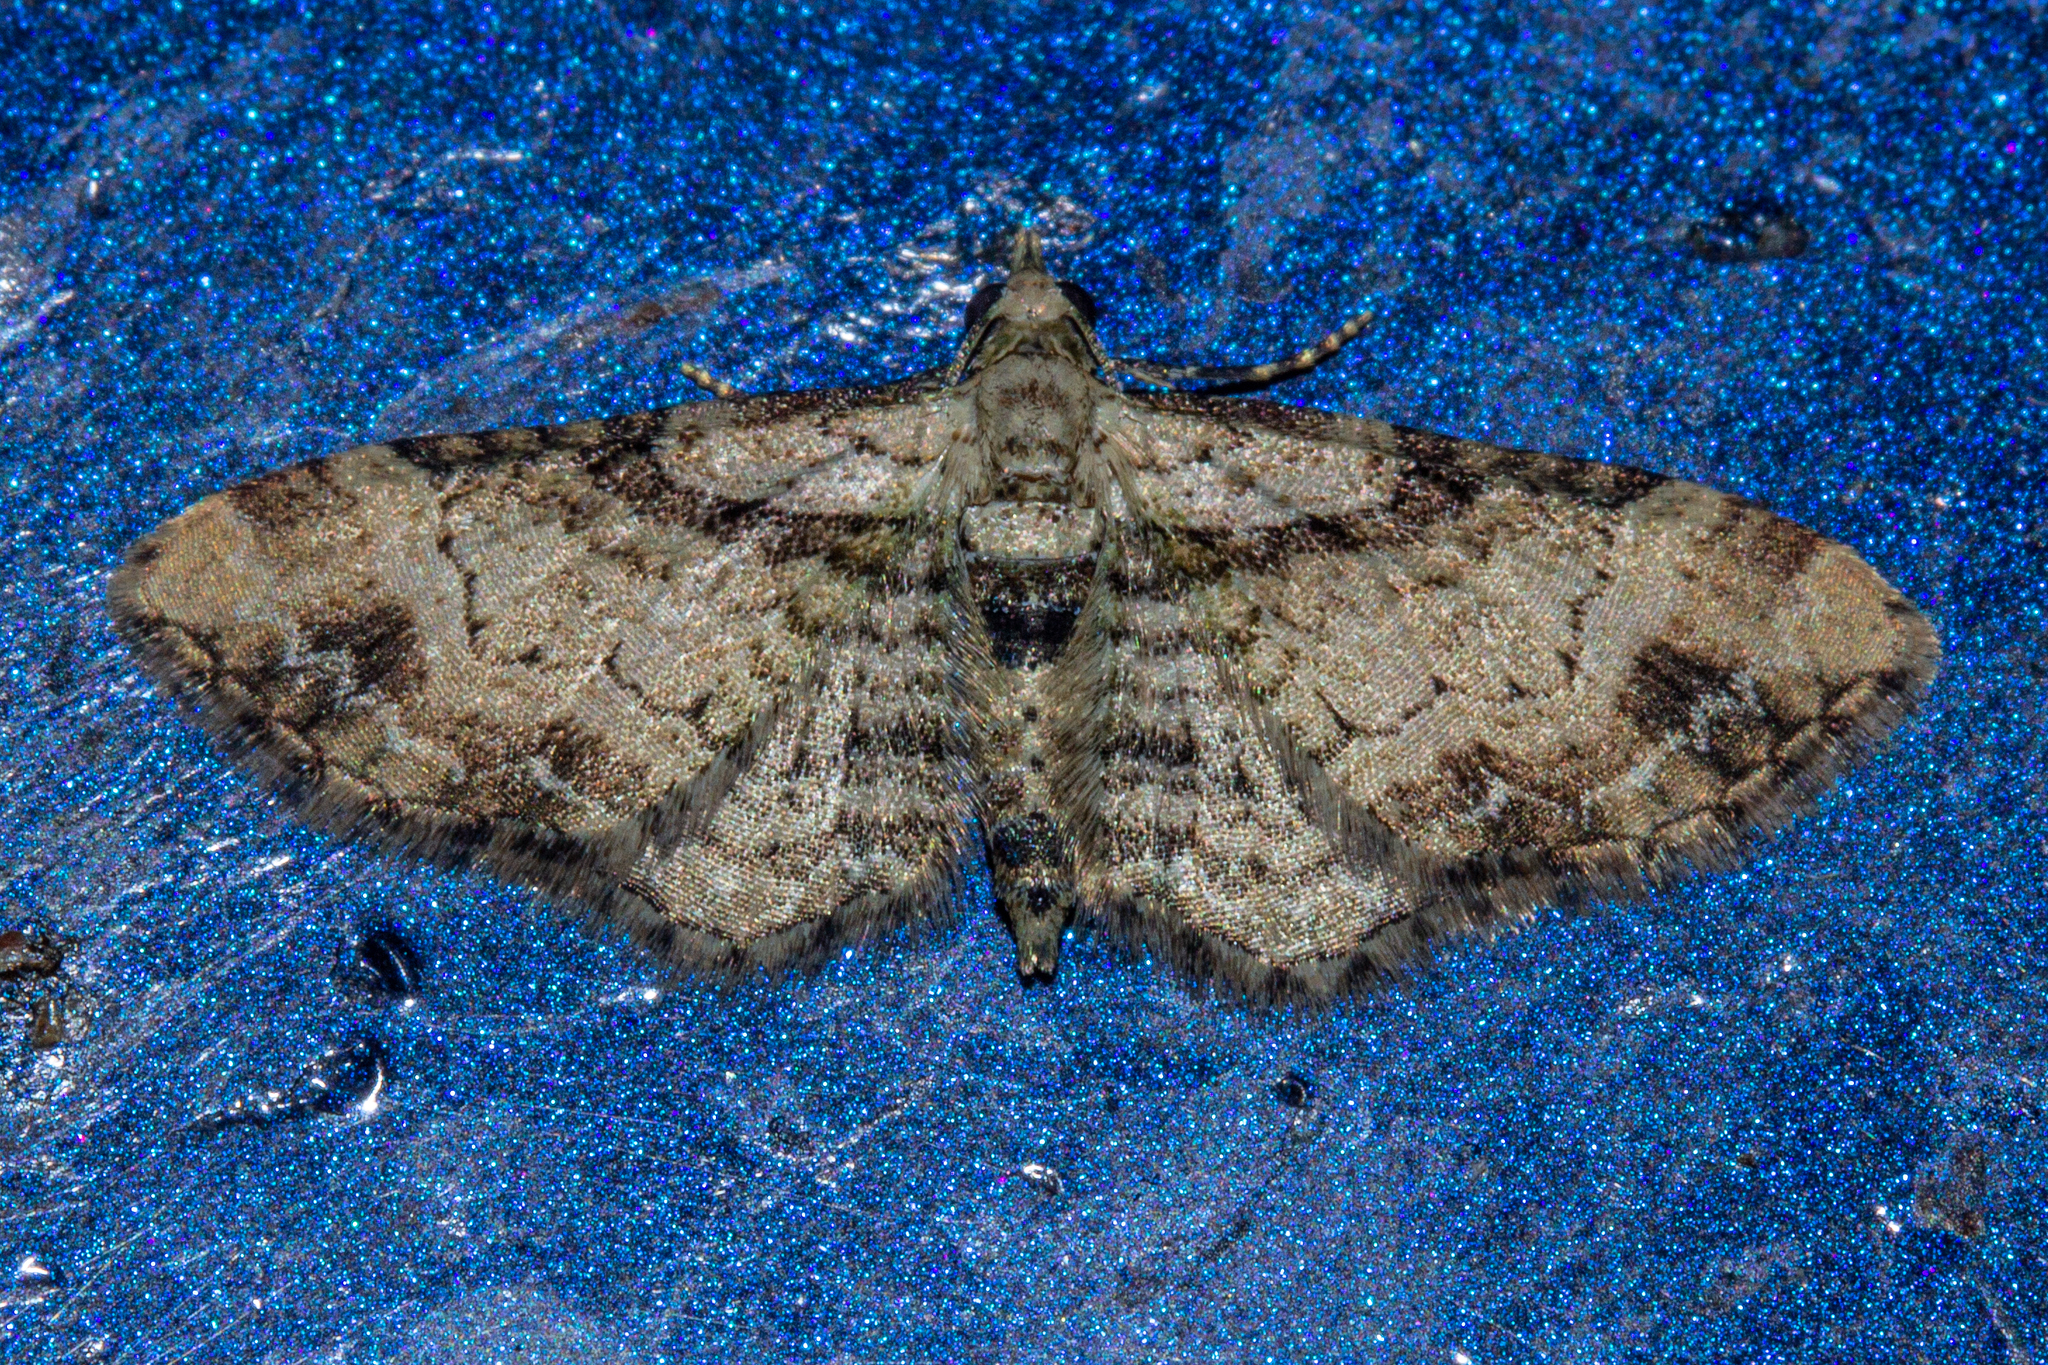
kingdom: Animalia
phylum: Arthropoda
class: Insecta
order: Lepidoptera
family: Geometridae
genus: Chloroclystis
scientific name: Chloroclystis
